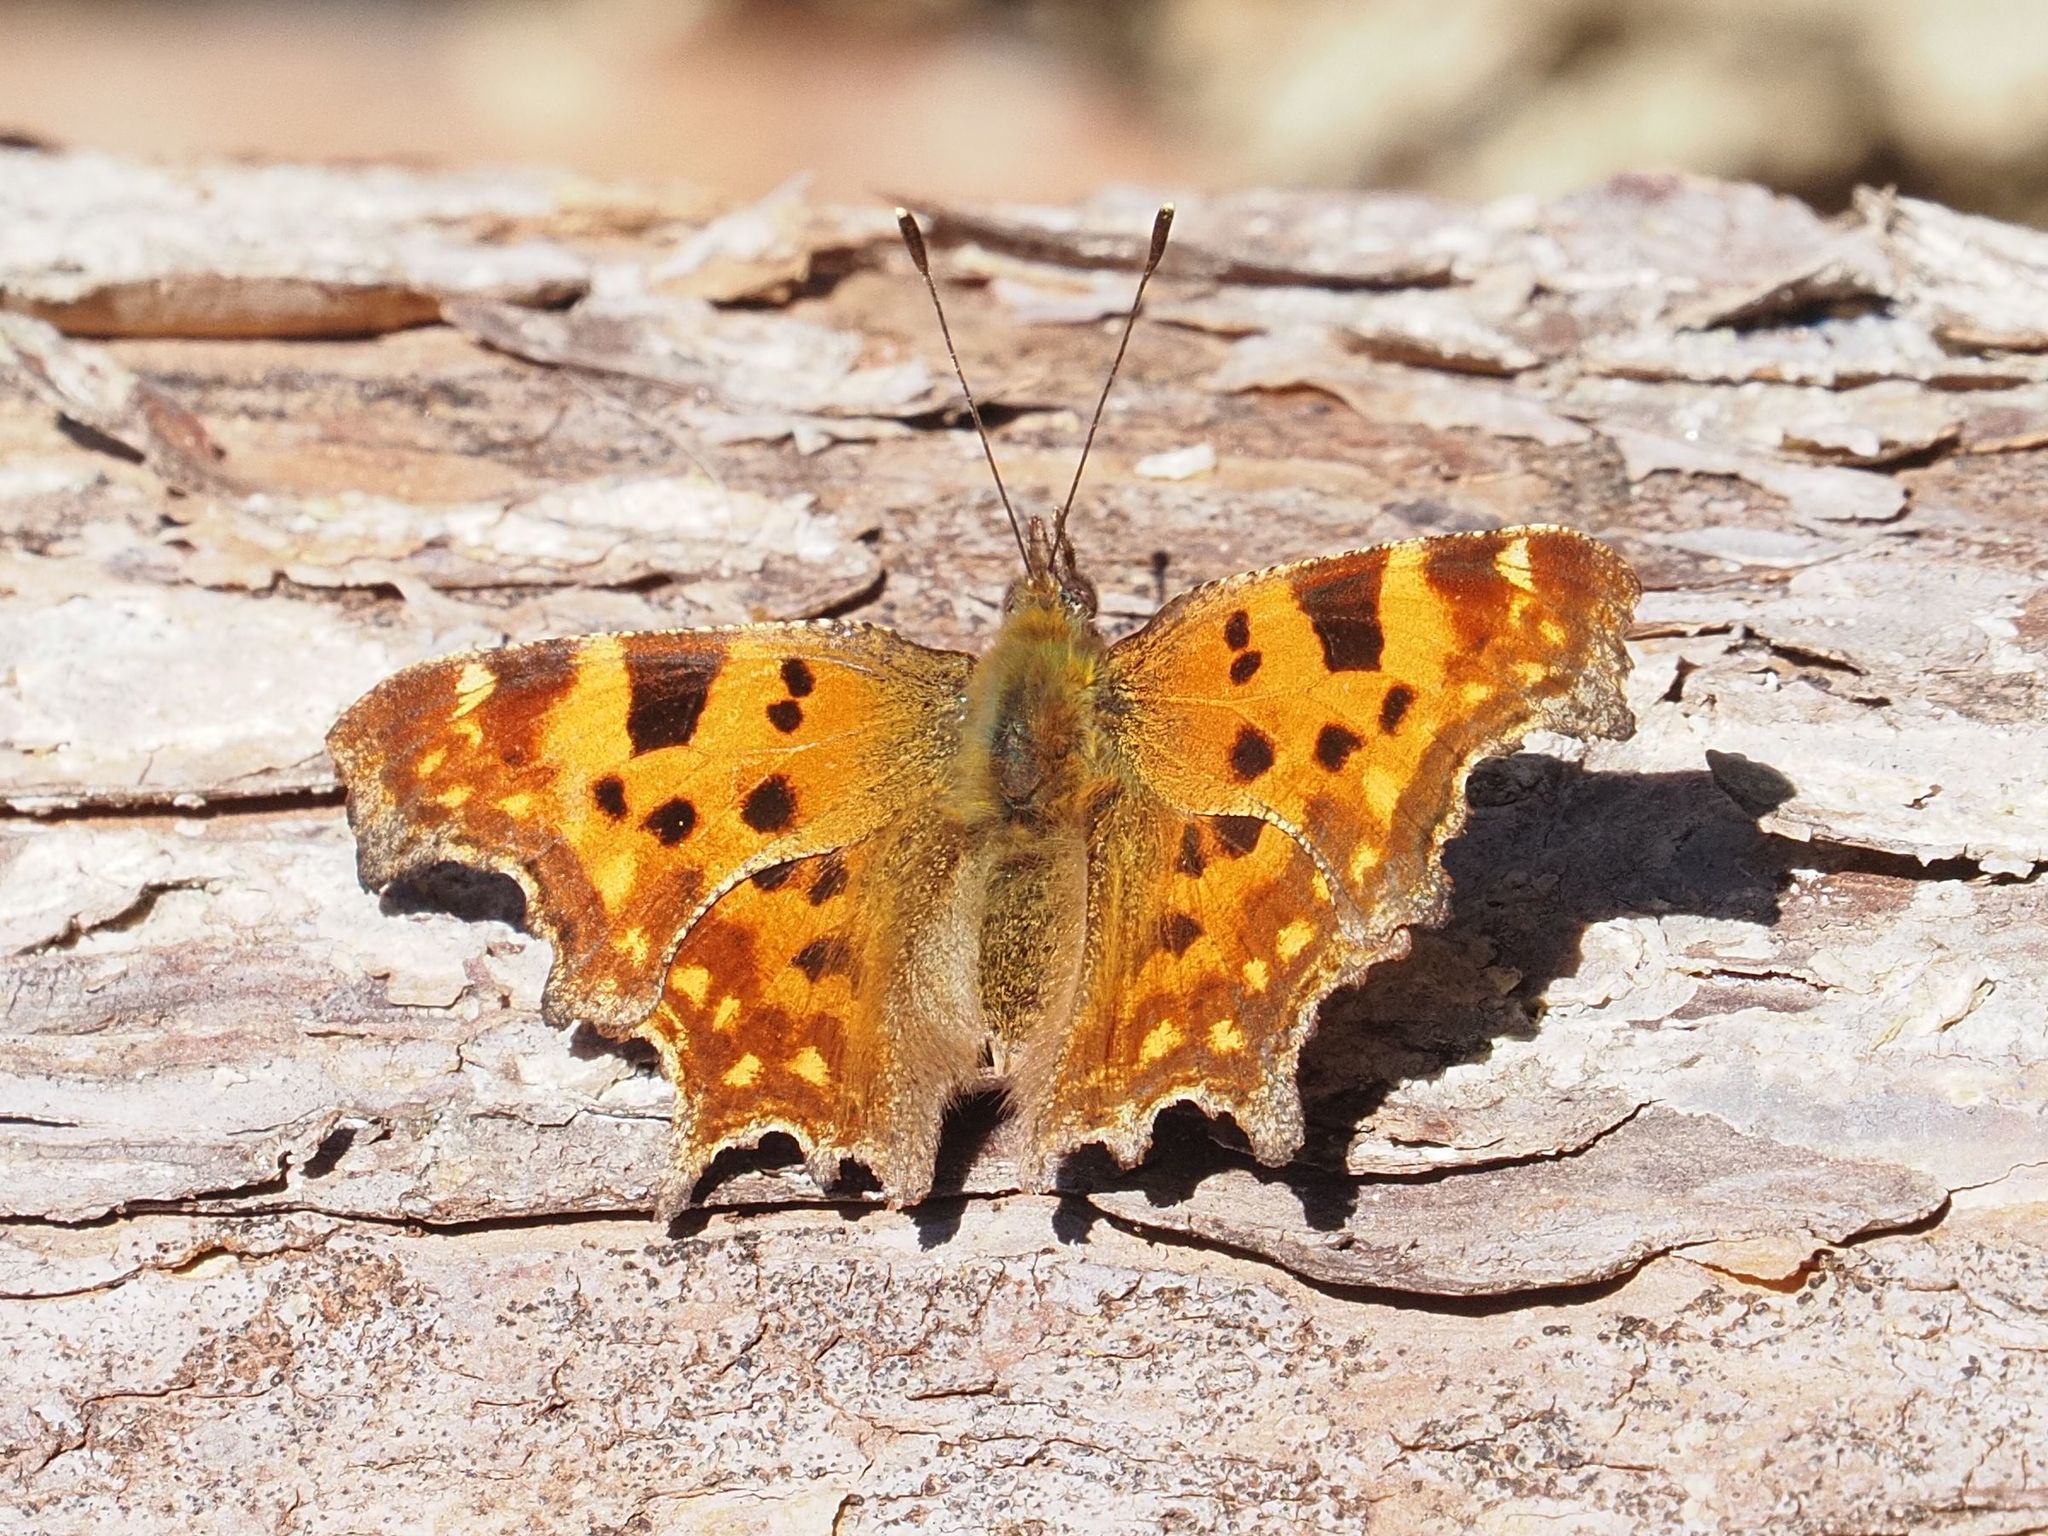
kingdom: Animalia
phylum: Arthropoda
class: Insecta
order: Lepidoptera
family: Nymphalidae
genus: Polygonia
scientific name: Polygonia c-album
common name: Comma
